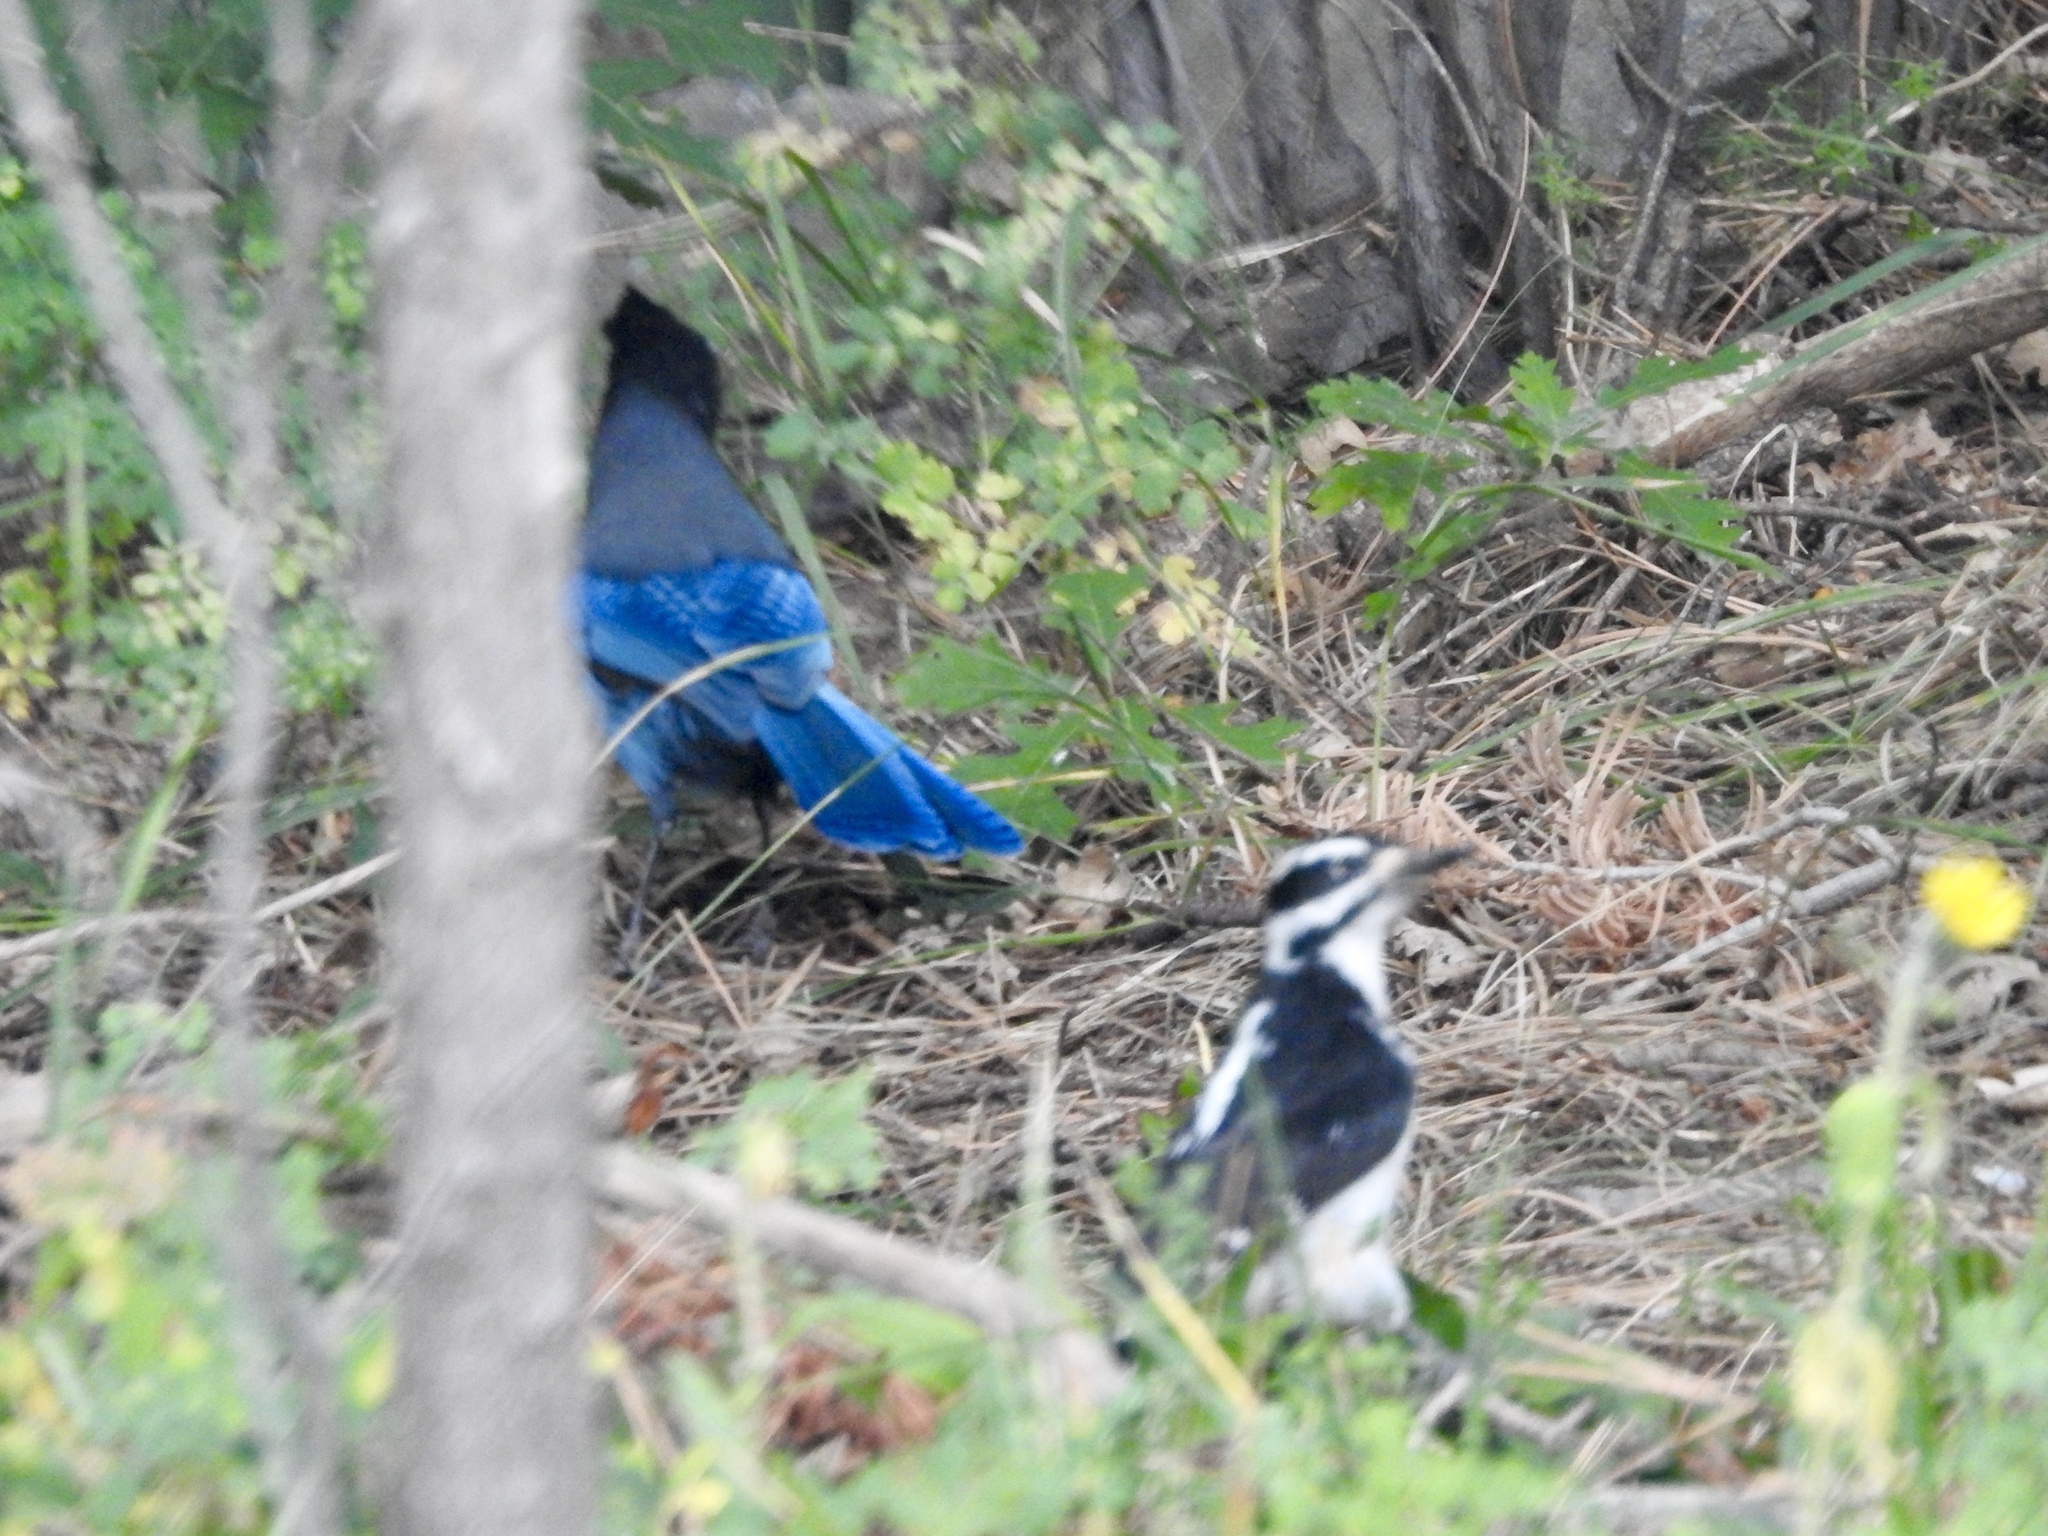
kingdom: Animalia
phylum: Chordata
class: Aves
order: Piciformes
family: Picidae
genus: Leuconotopicus
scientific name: Leuconotopicus villosus
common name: Hairy woodpecker
